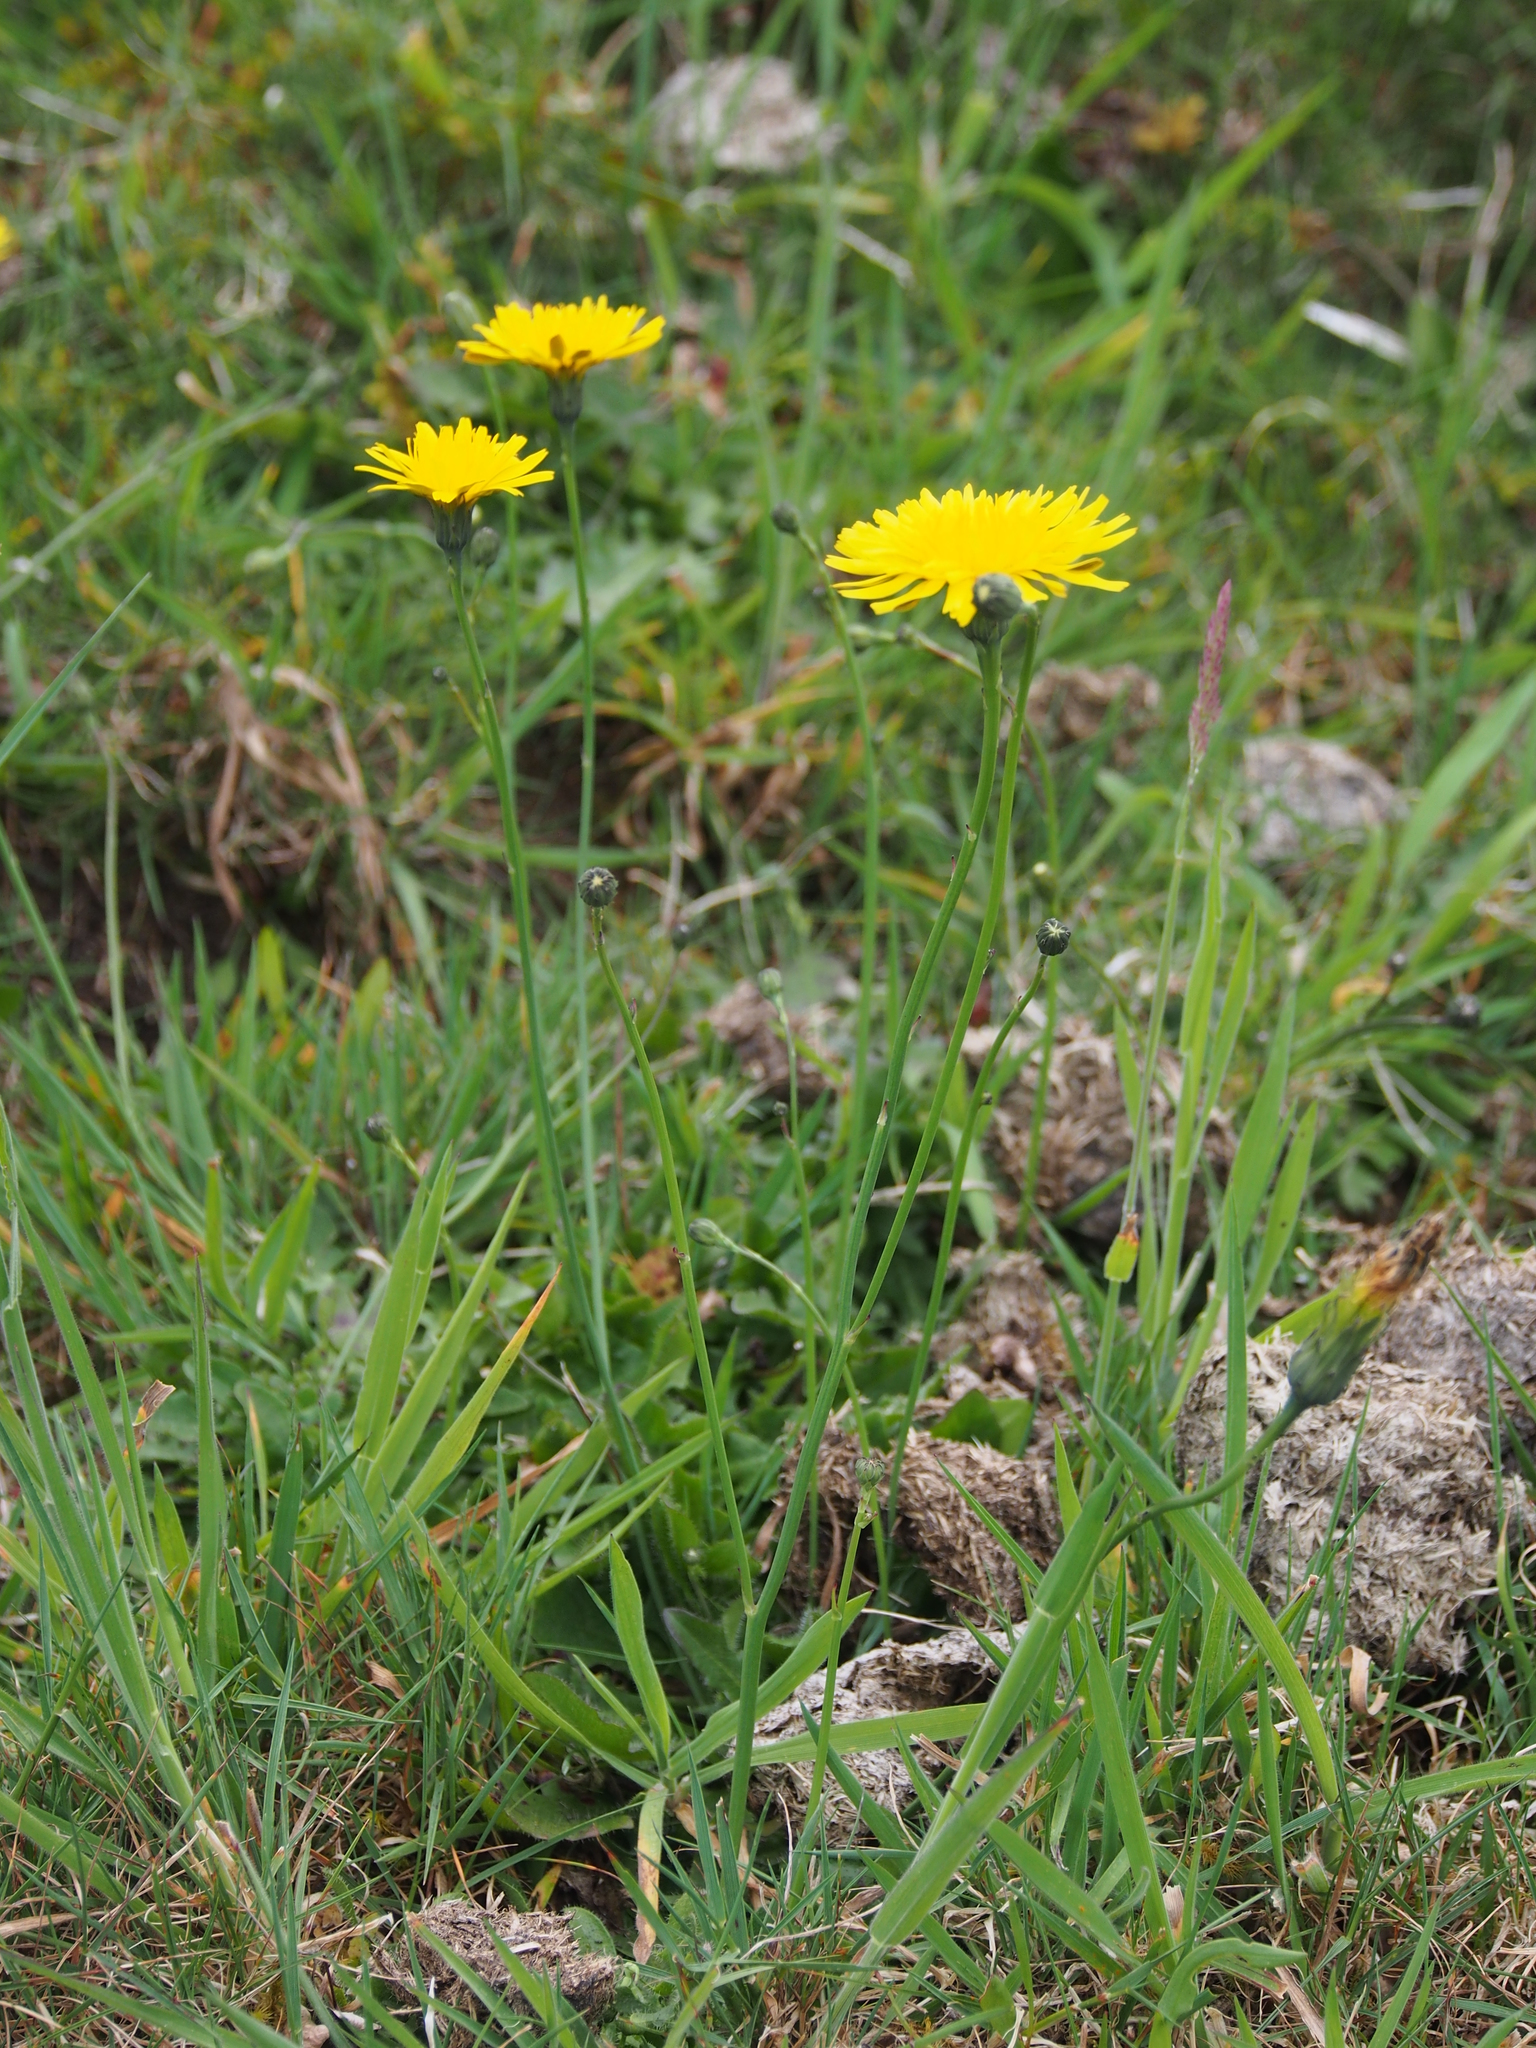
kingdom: Plantae
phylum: Tracheophyta
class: Magnoliopsida
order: Asterales
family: Asteraceae
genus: Hypochaeris
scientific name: Hypochaeris radicata
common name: Flatweed
